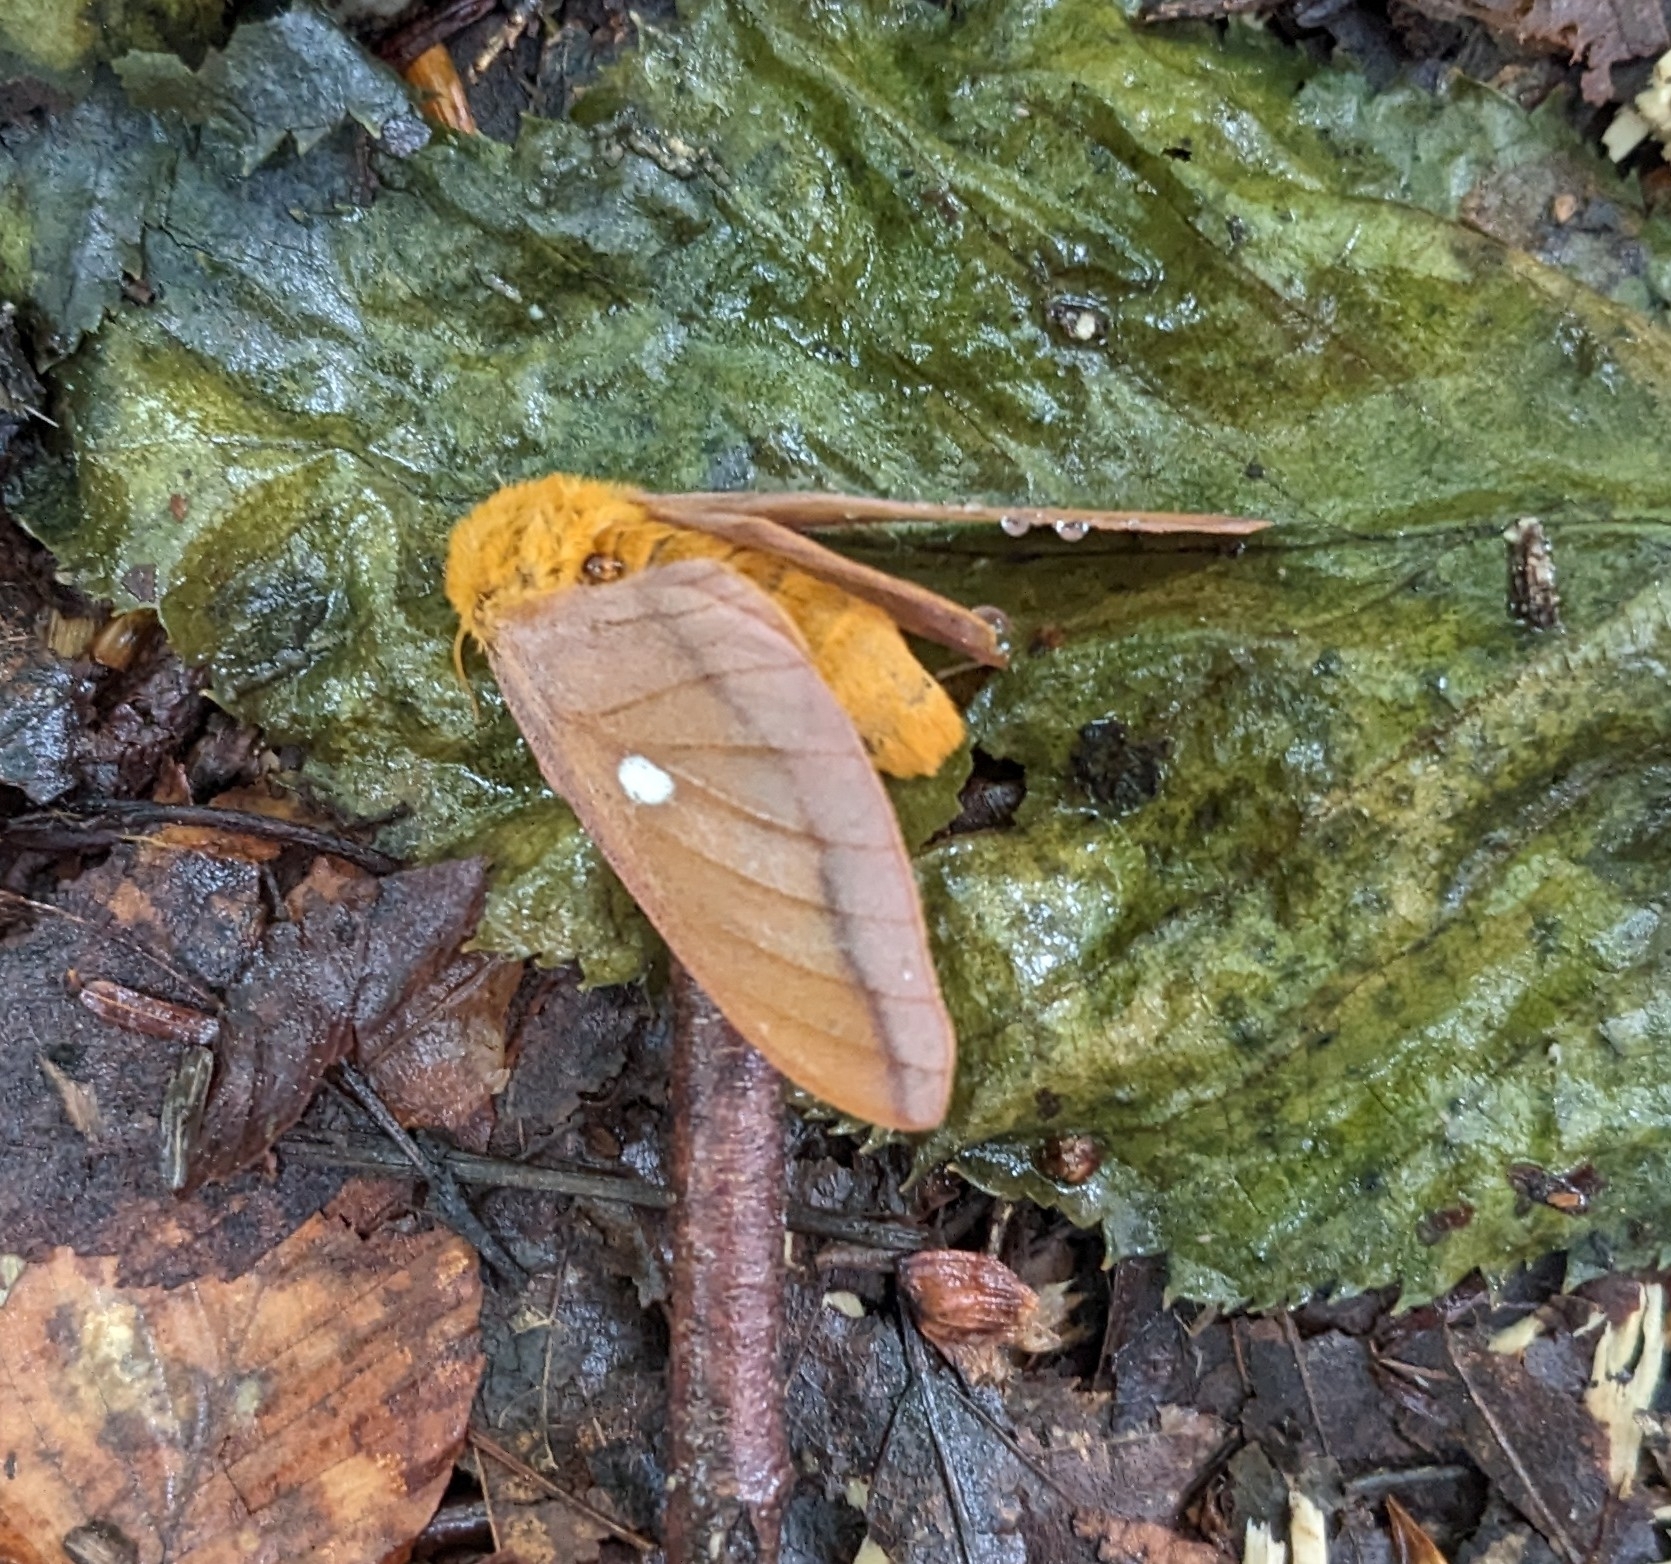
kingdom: Animalia
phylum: Arthropoda
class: Insecta
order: Lepidoptera
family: Saturniidae
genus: Anisota
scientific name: Anisota virginiensis
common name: Pink striped oakworm moth
